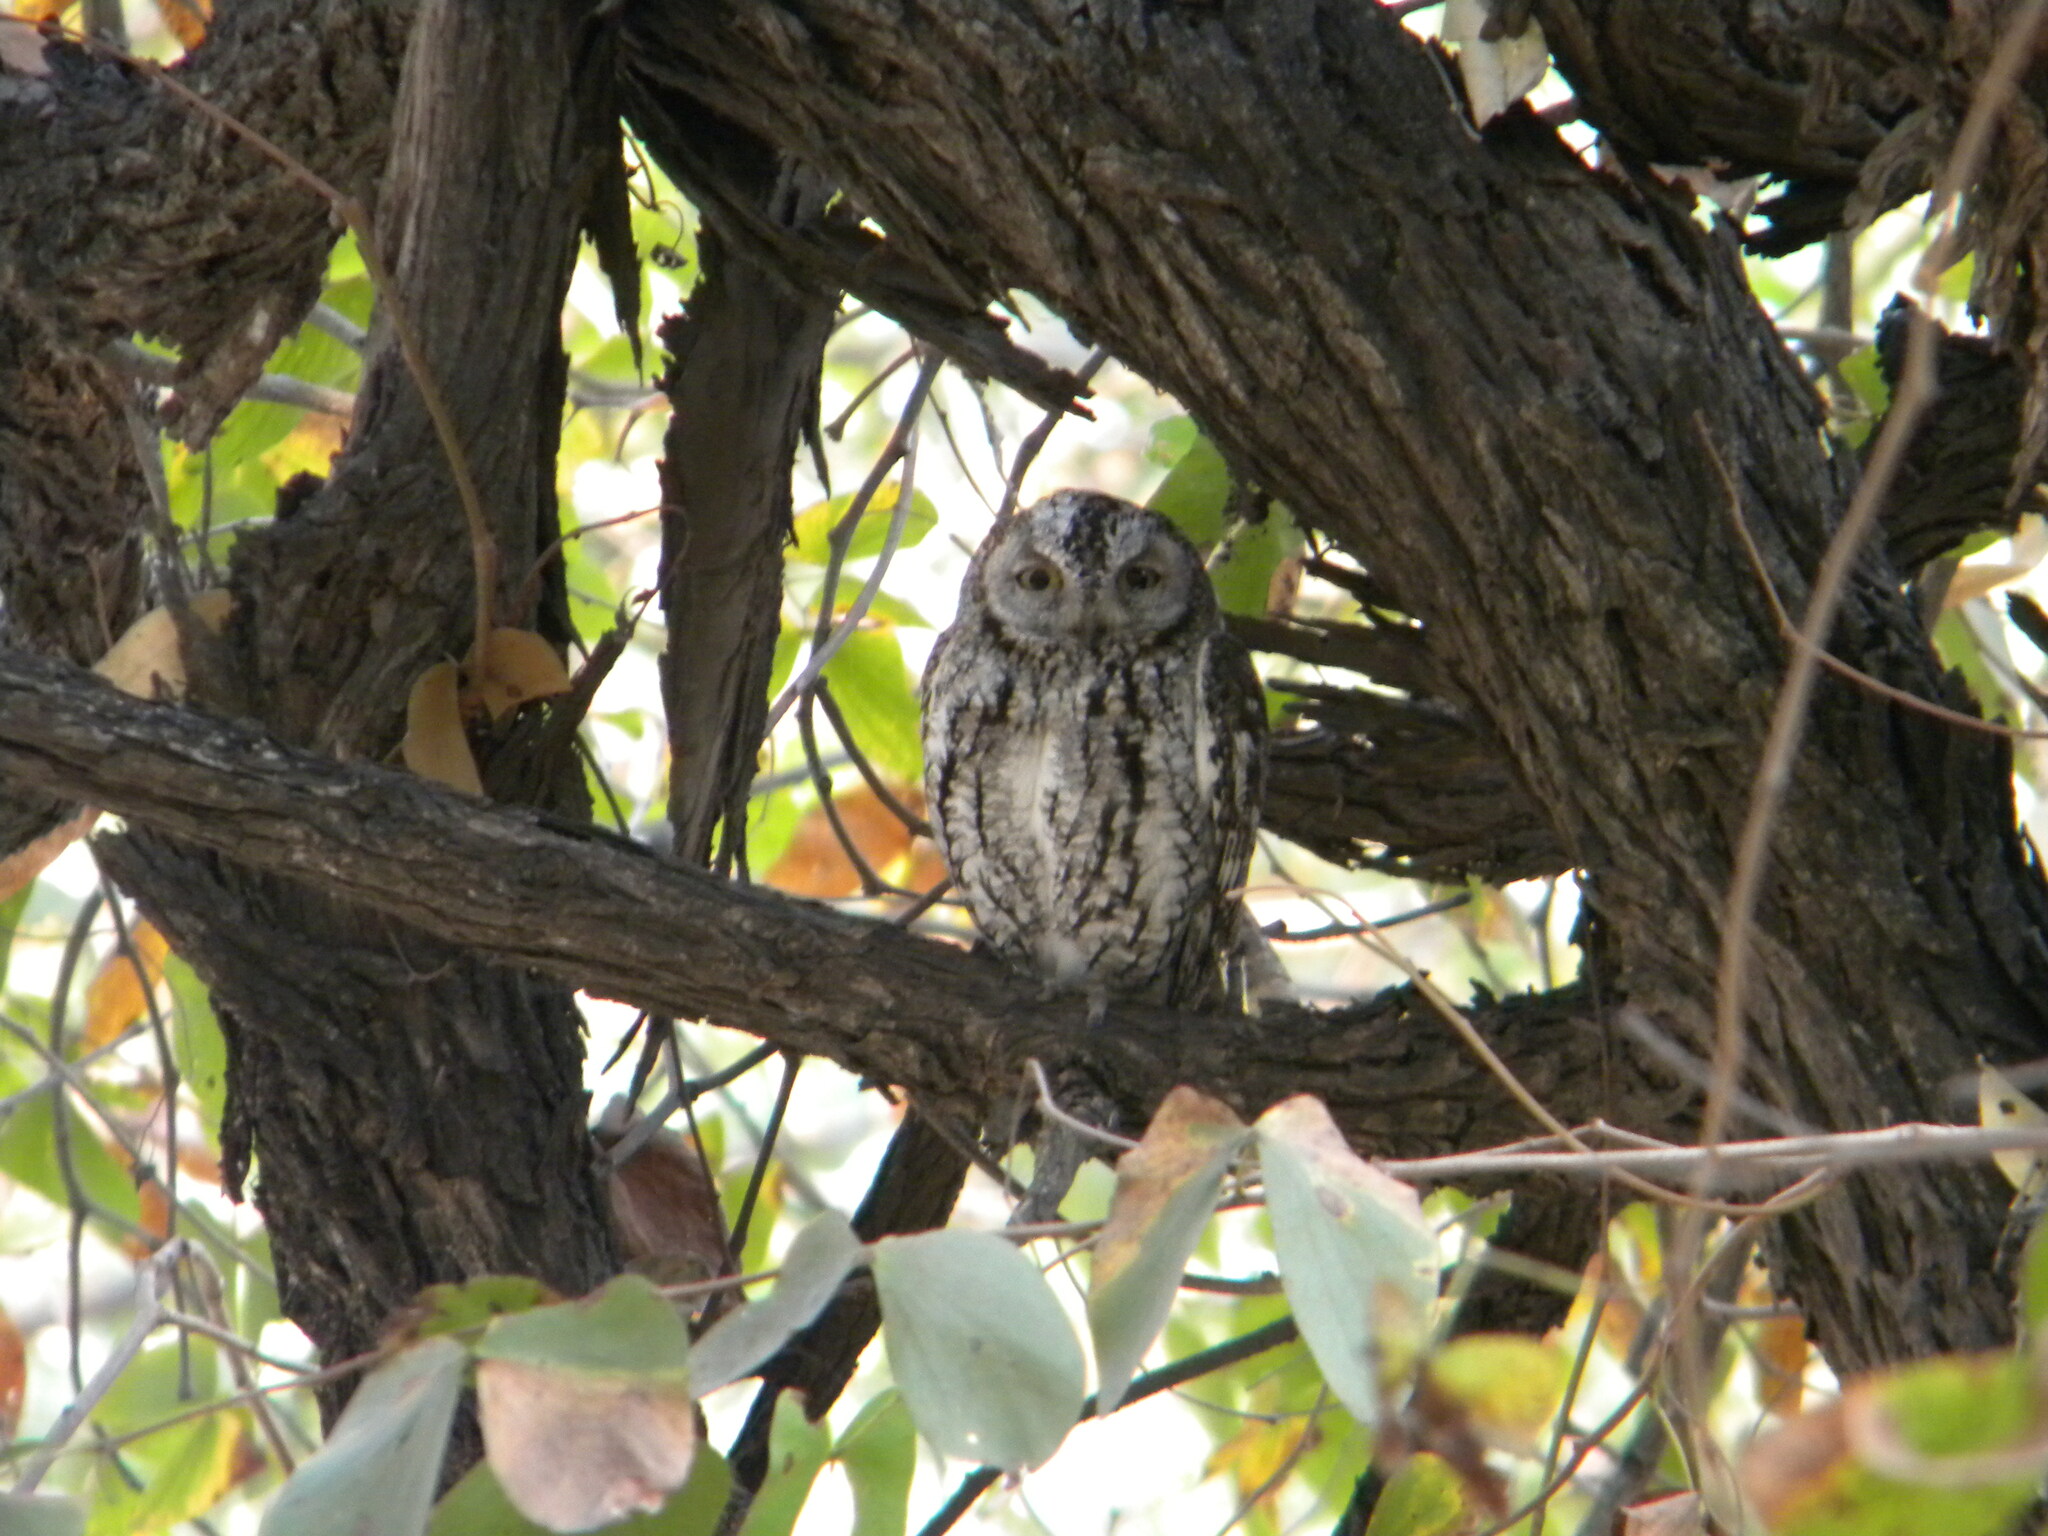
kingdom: Animalia
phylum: Chordata
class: Aves
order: Strigiformes
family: Strigidae
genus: Otus
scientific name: Otus senegalensis
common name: African scops owl
